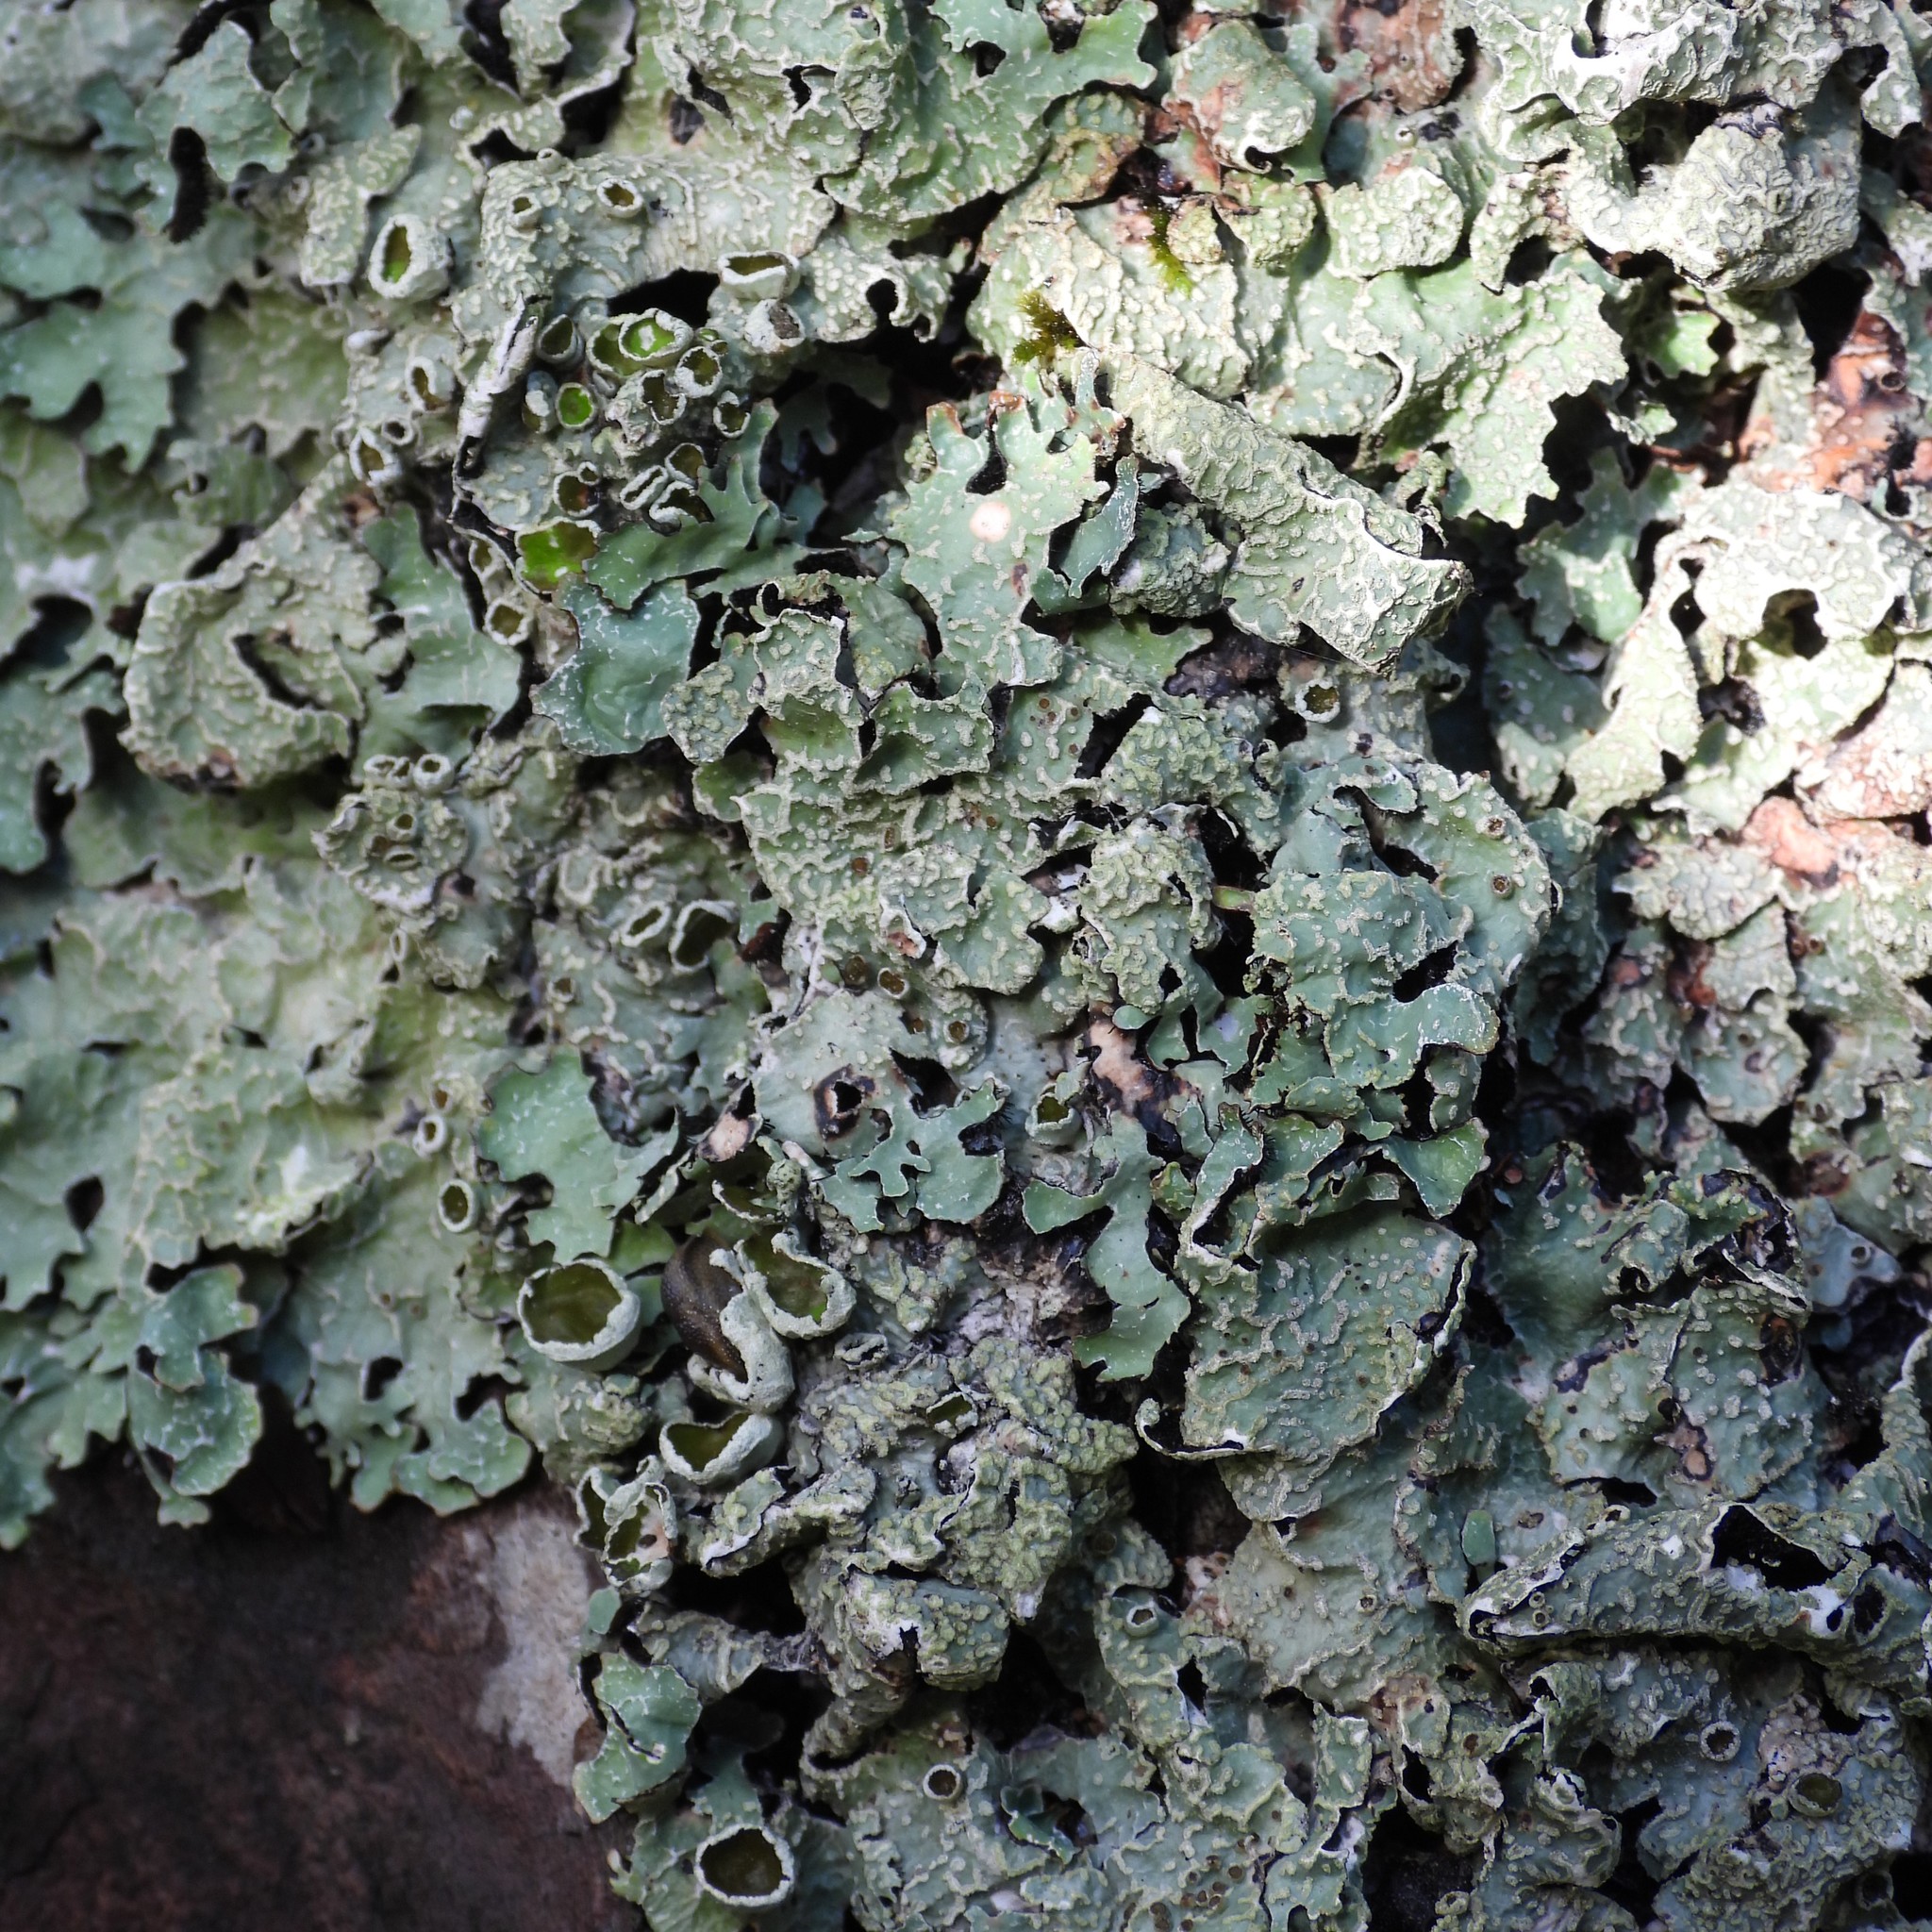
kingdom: Fungi
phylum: Ascomycota
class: Lecanoromycetes
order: Lecanorales
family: Parmeliaceae
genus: Parmelia
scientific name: Parmelia sulcata
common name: Netted shield lichen
